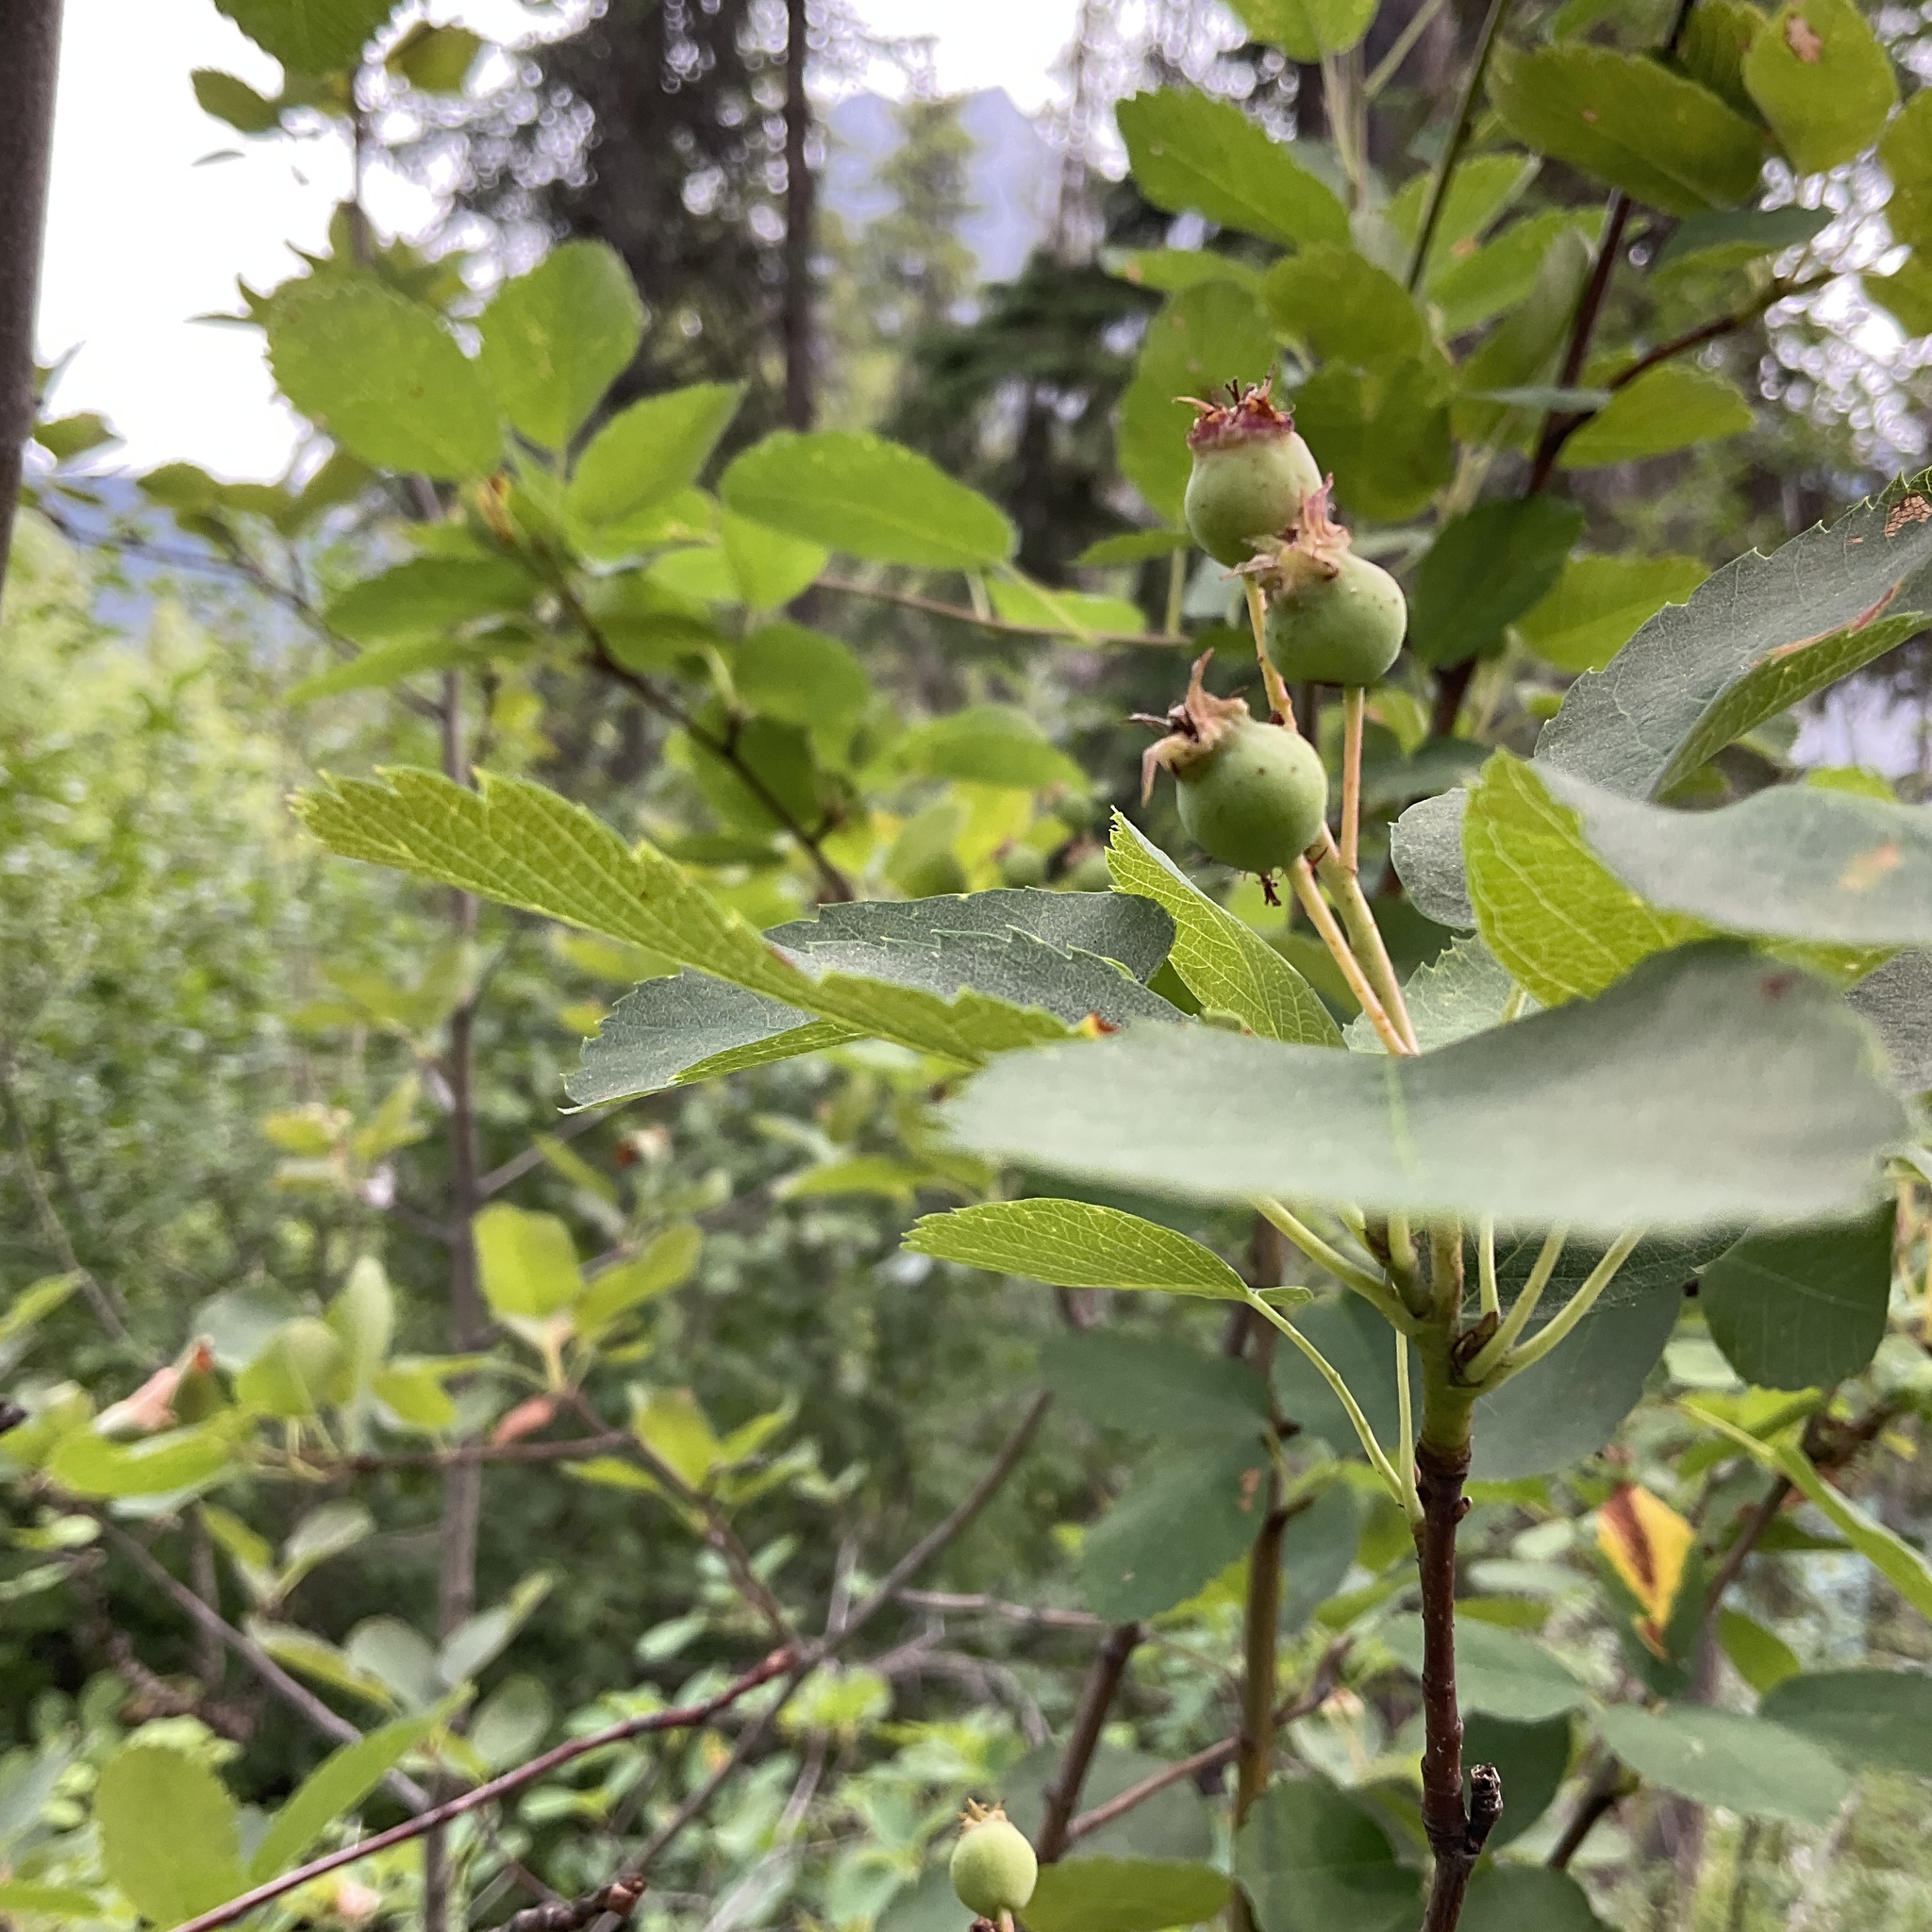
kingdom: Plantae
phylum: Tracheophyta
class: Magnoliopsida
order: Rosales
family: Rosaceae
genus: Amelanchier
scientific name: Amelanchier alnifolia
